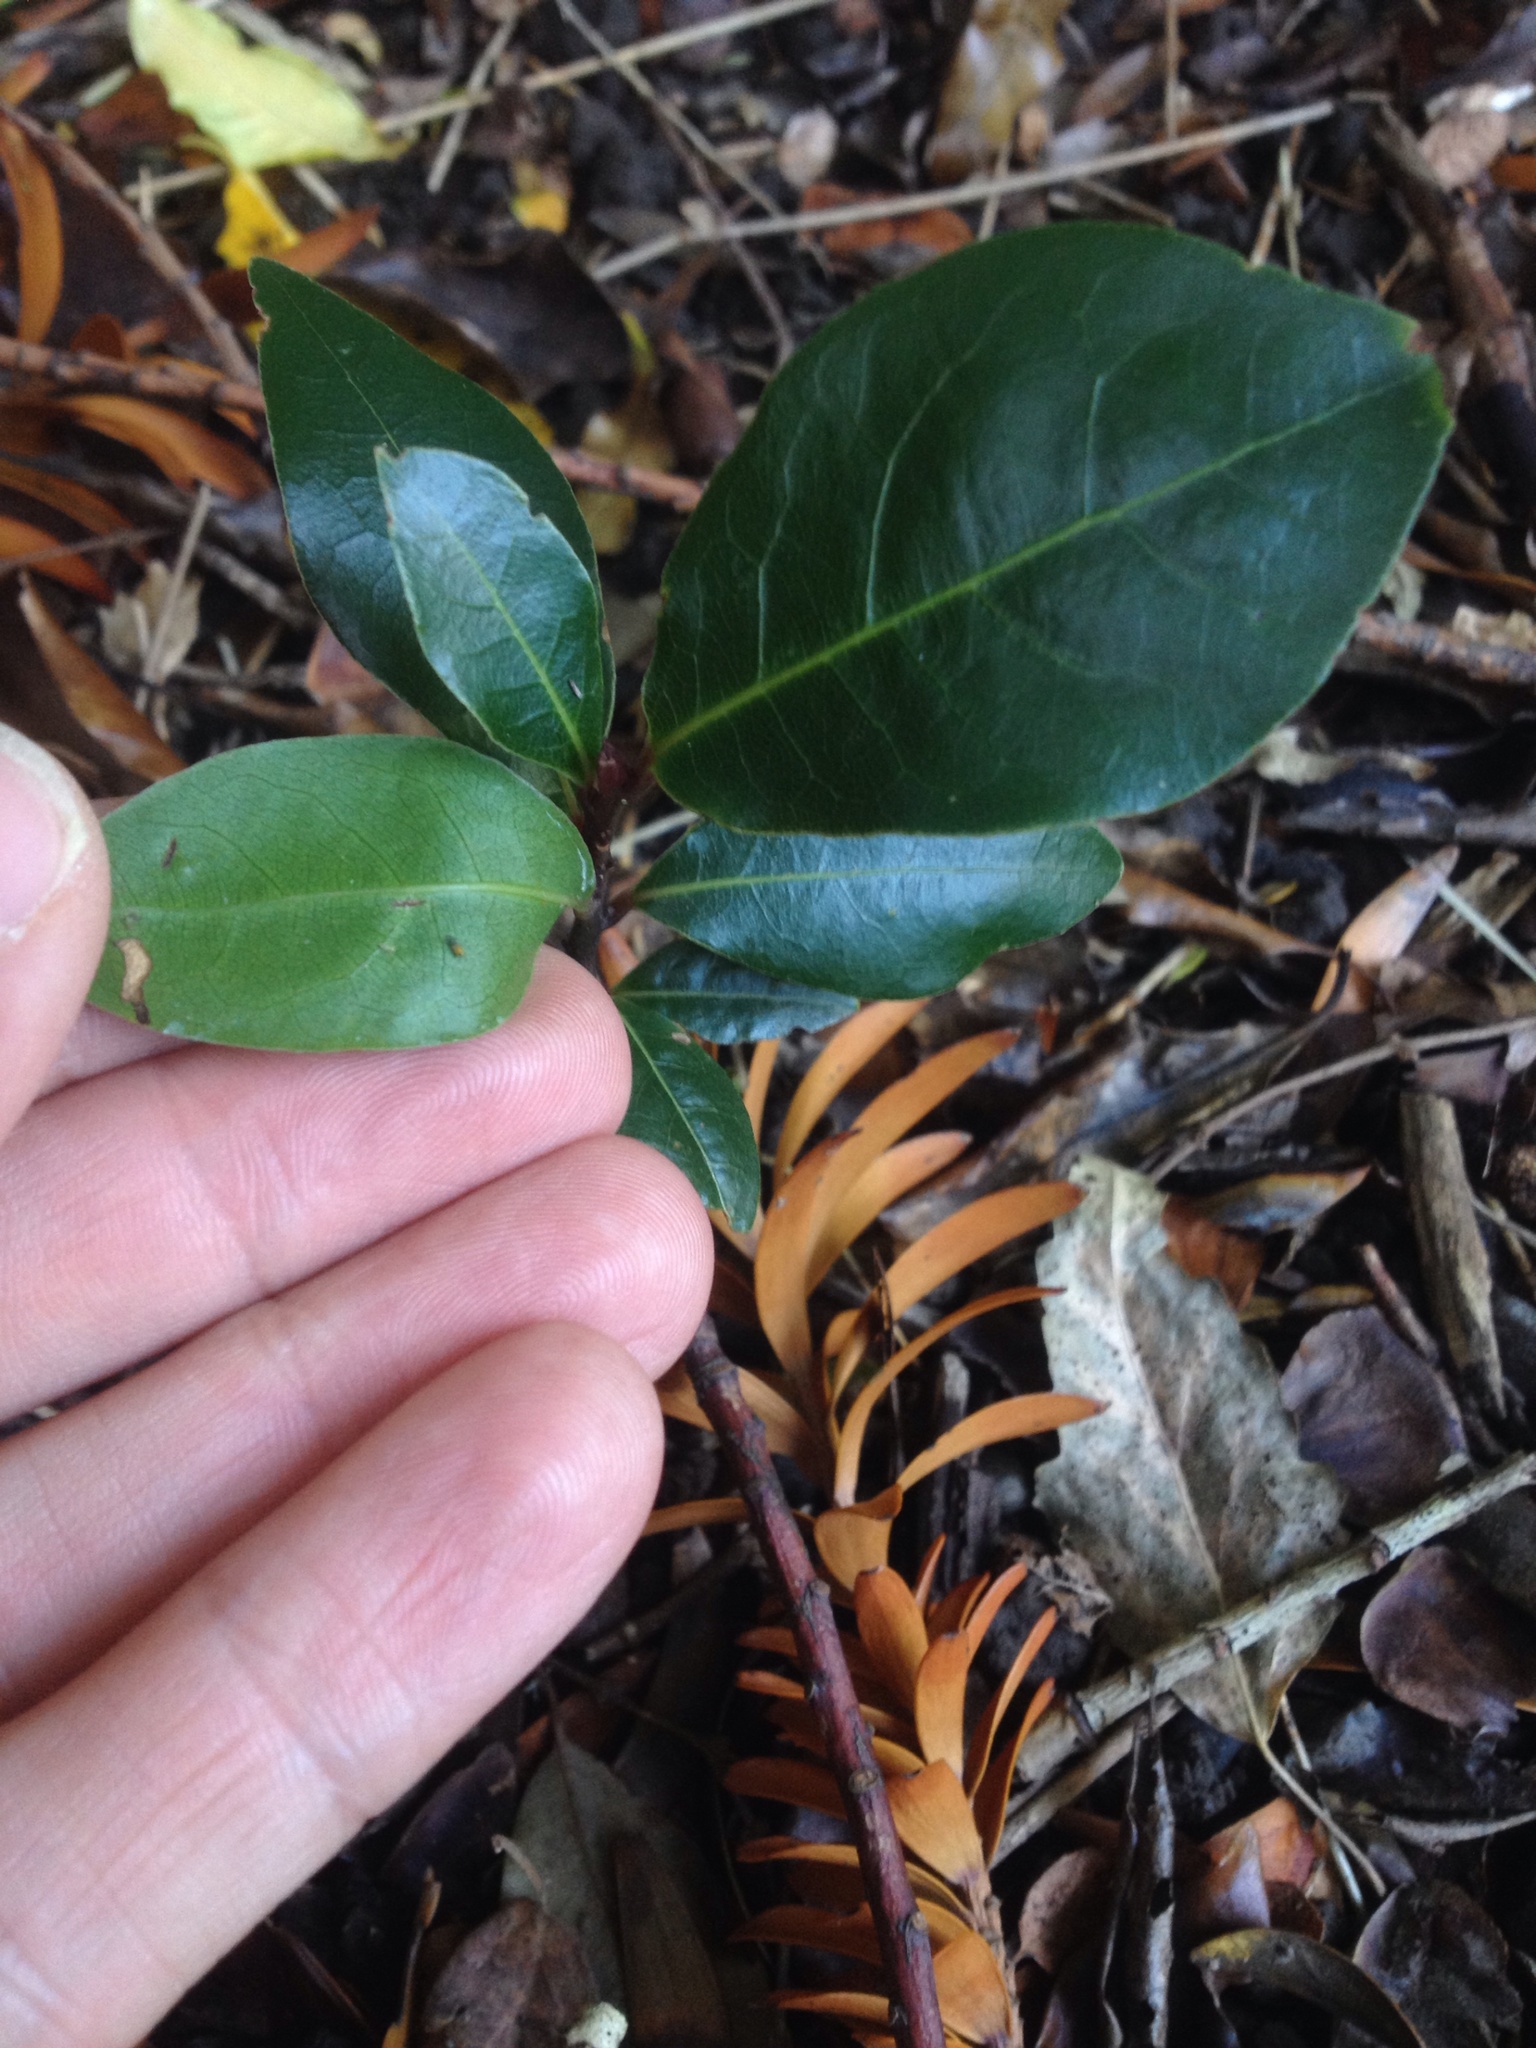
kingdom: Plantae
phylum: Tracheophyta
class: Magnoliopsida
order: Laurales
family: Lauraceae
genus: Laurus
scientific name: Laurus nobilis
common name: Bay
